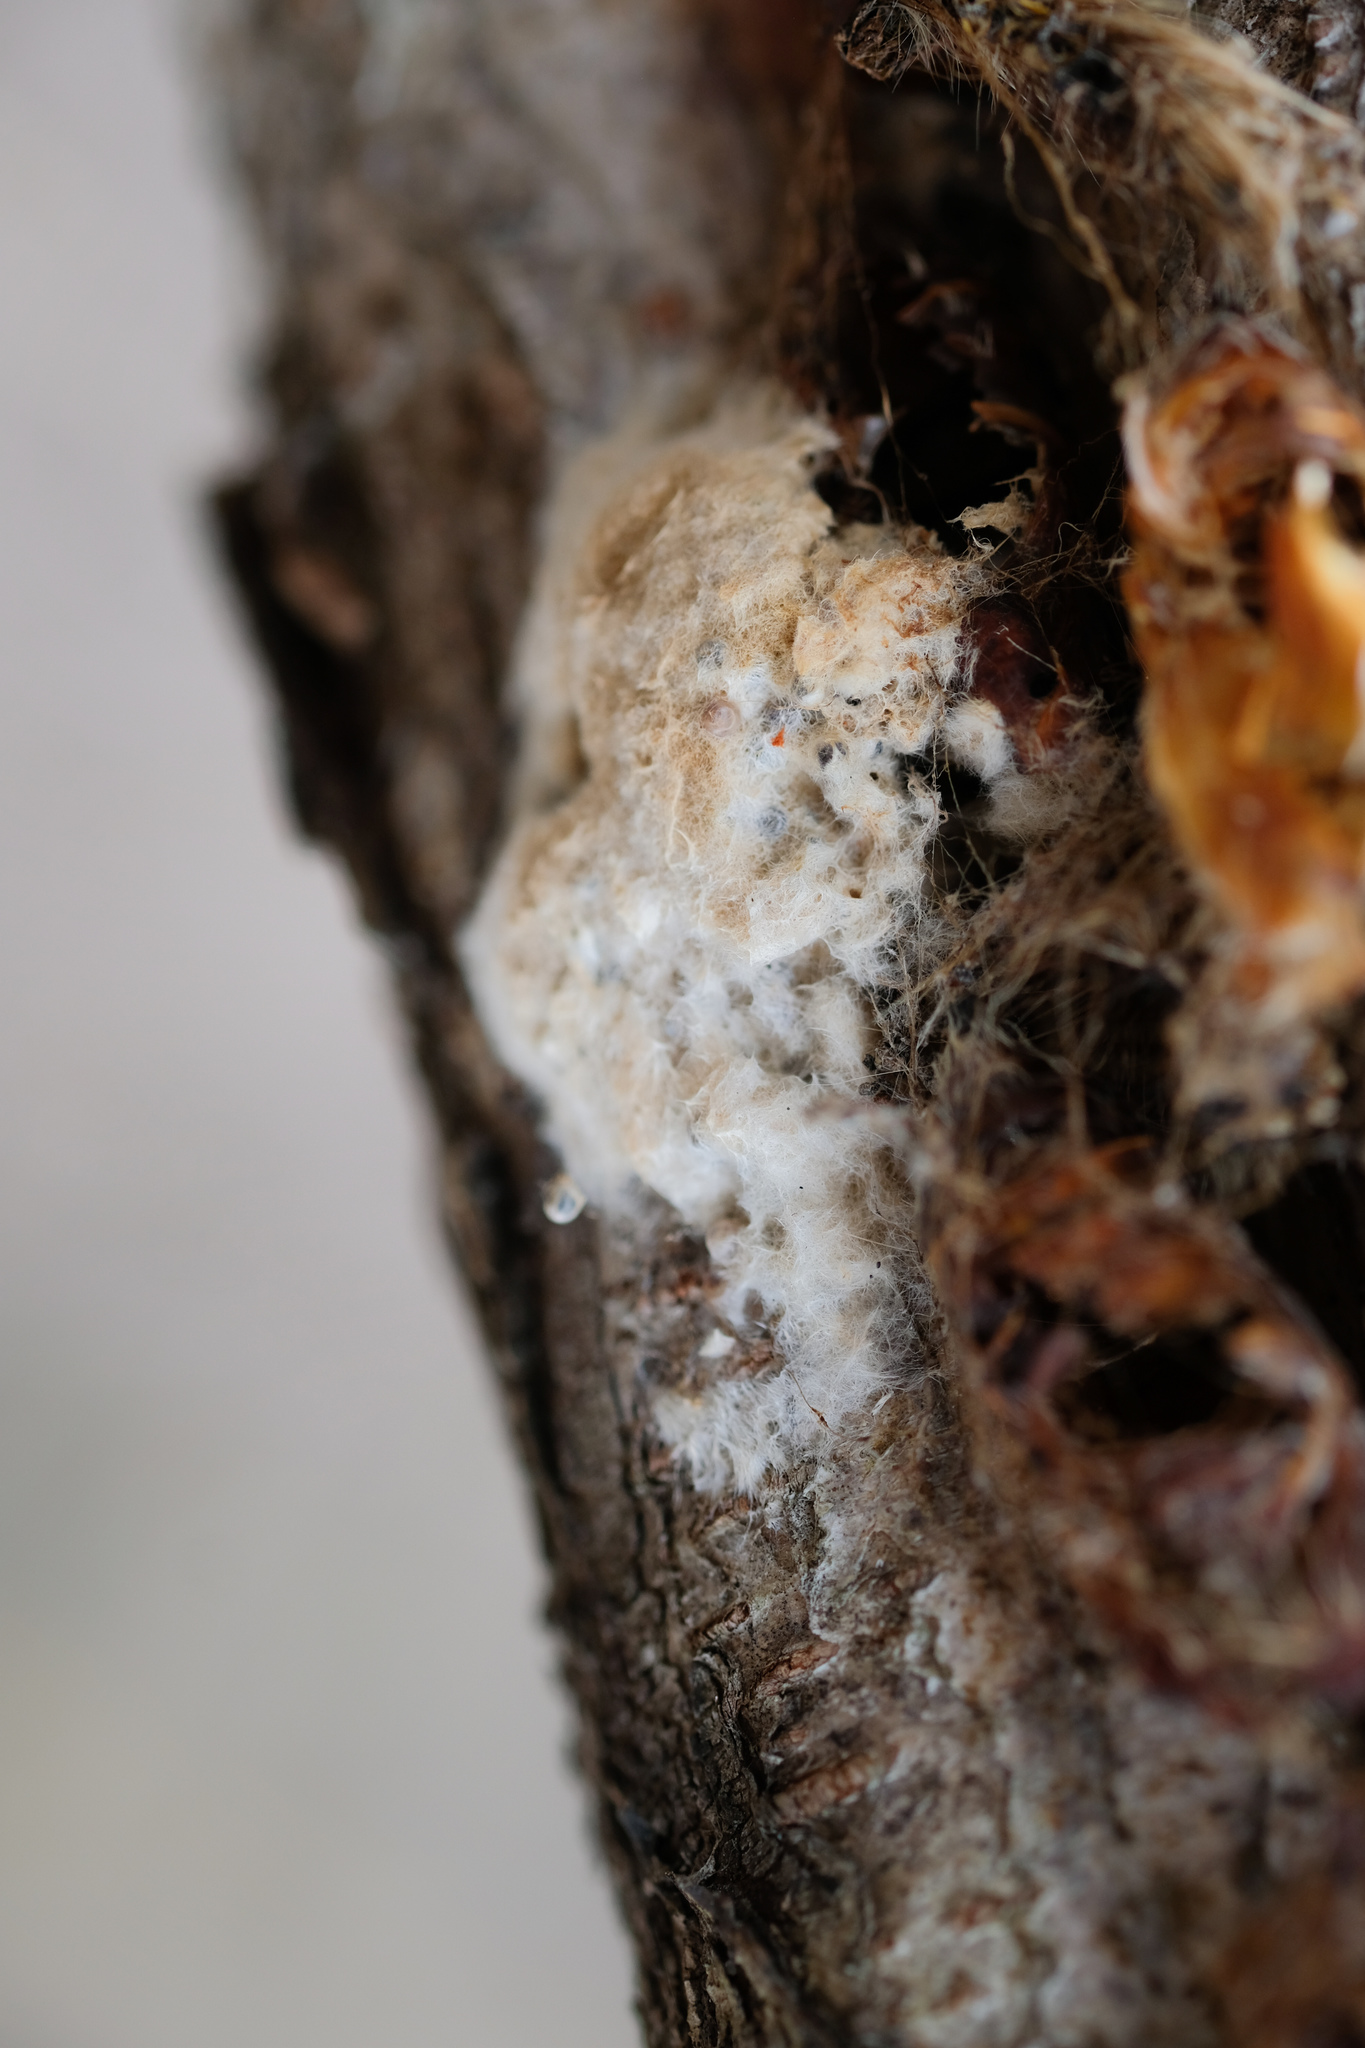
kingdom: Animalia
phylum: Arthropoda
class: Insecta
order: Lepidoptera
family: Erebidae
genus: Lymantria
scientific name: Lymantria dispar
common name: Gypsy moth
